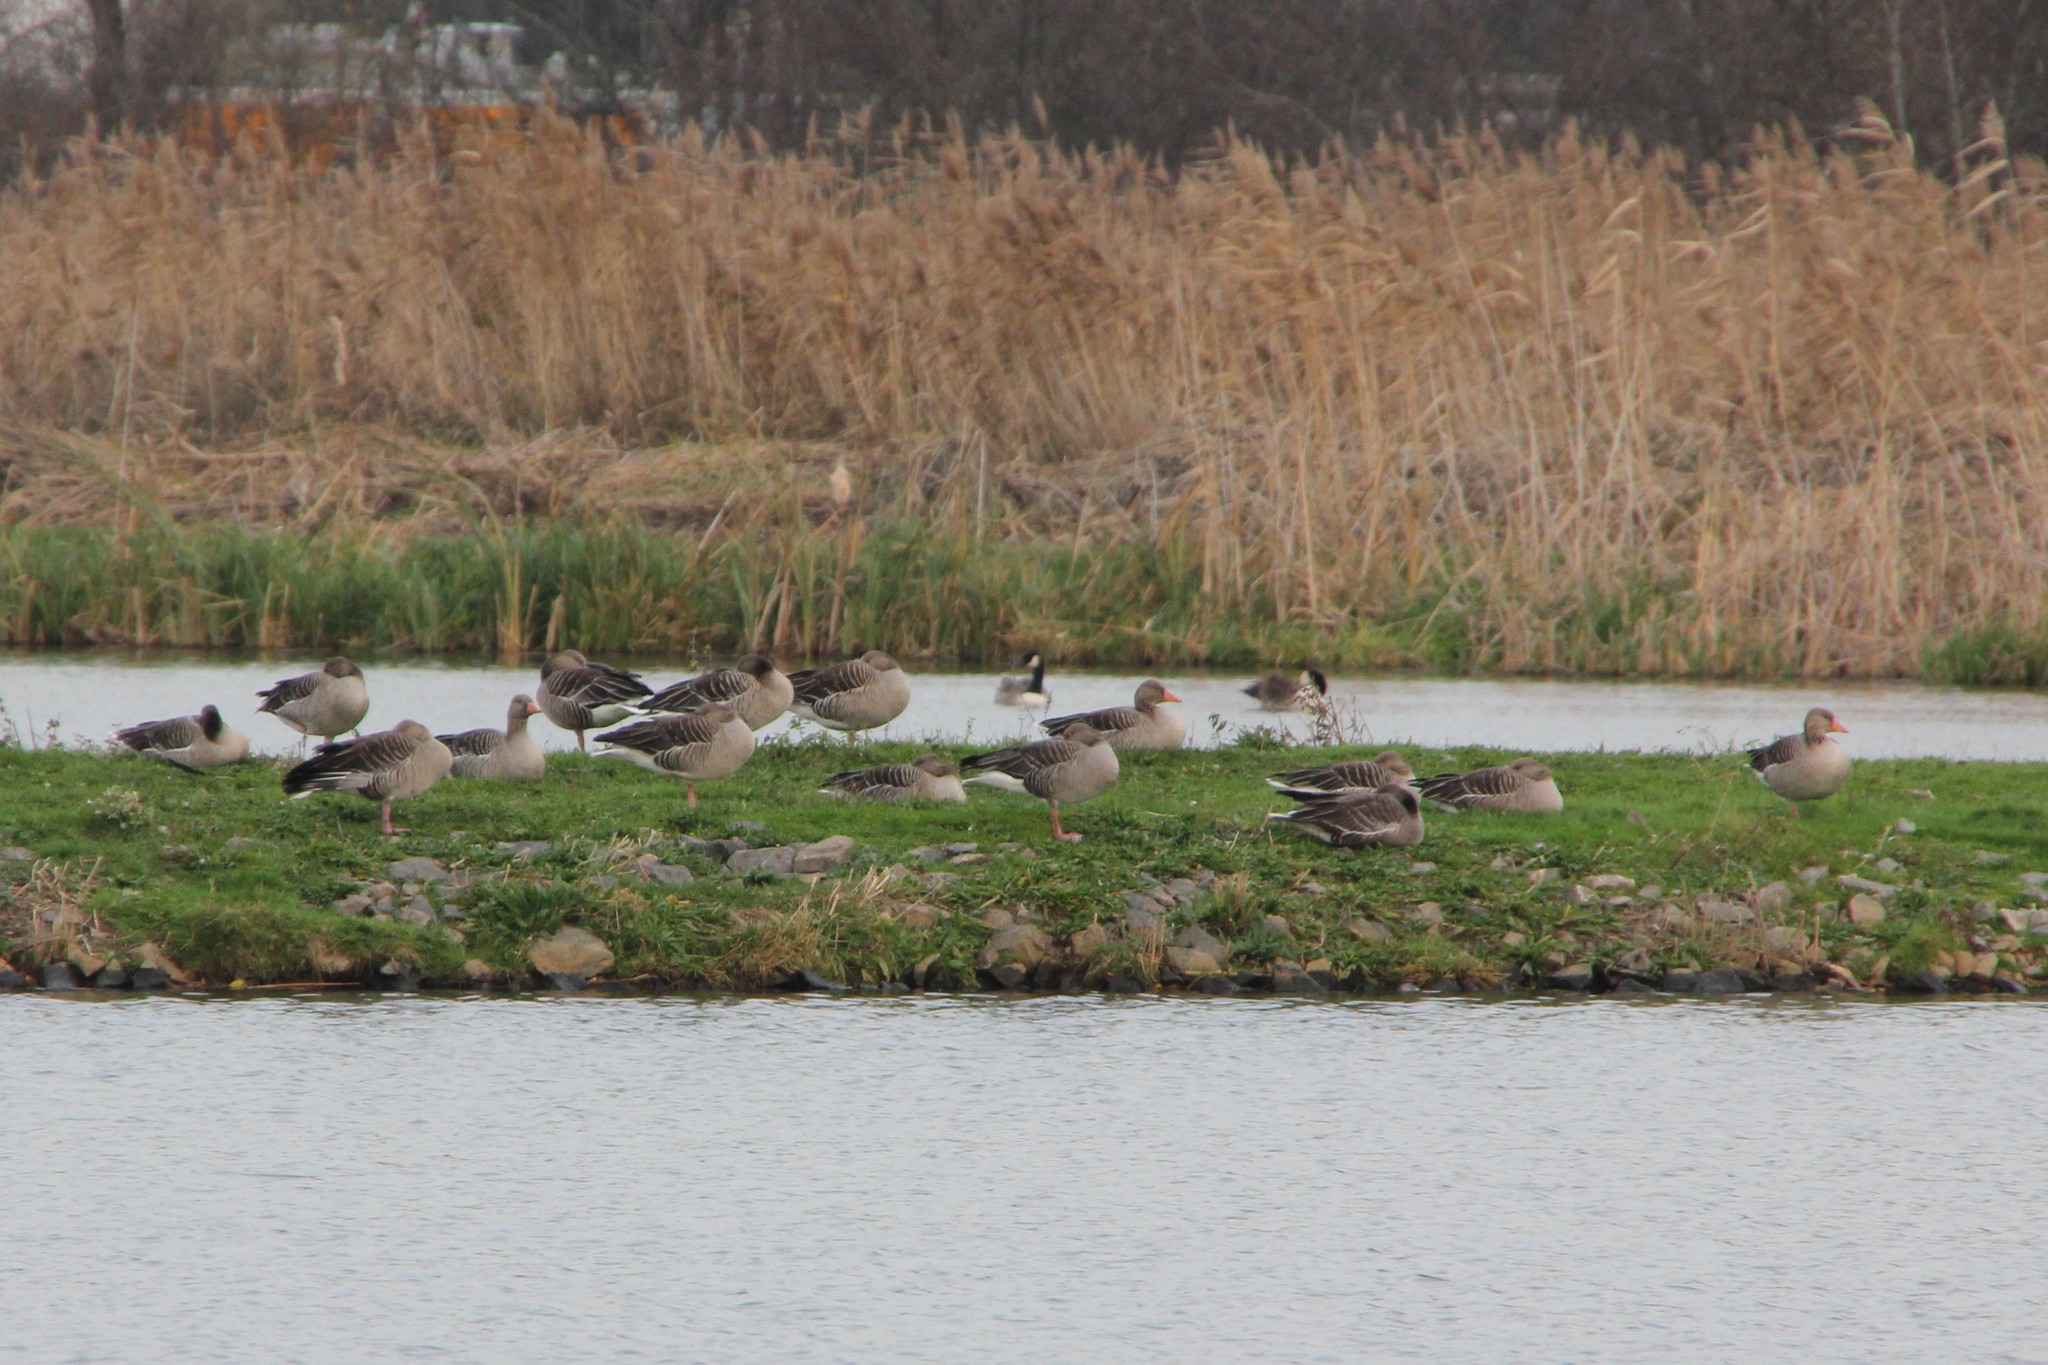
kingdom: Animalia
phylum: Chordata
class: Aves
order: Anseriformes
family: Anatidae
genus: Anser
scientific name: Anser anser
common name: Greylag goose
